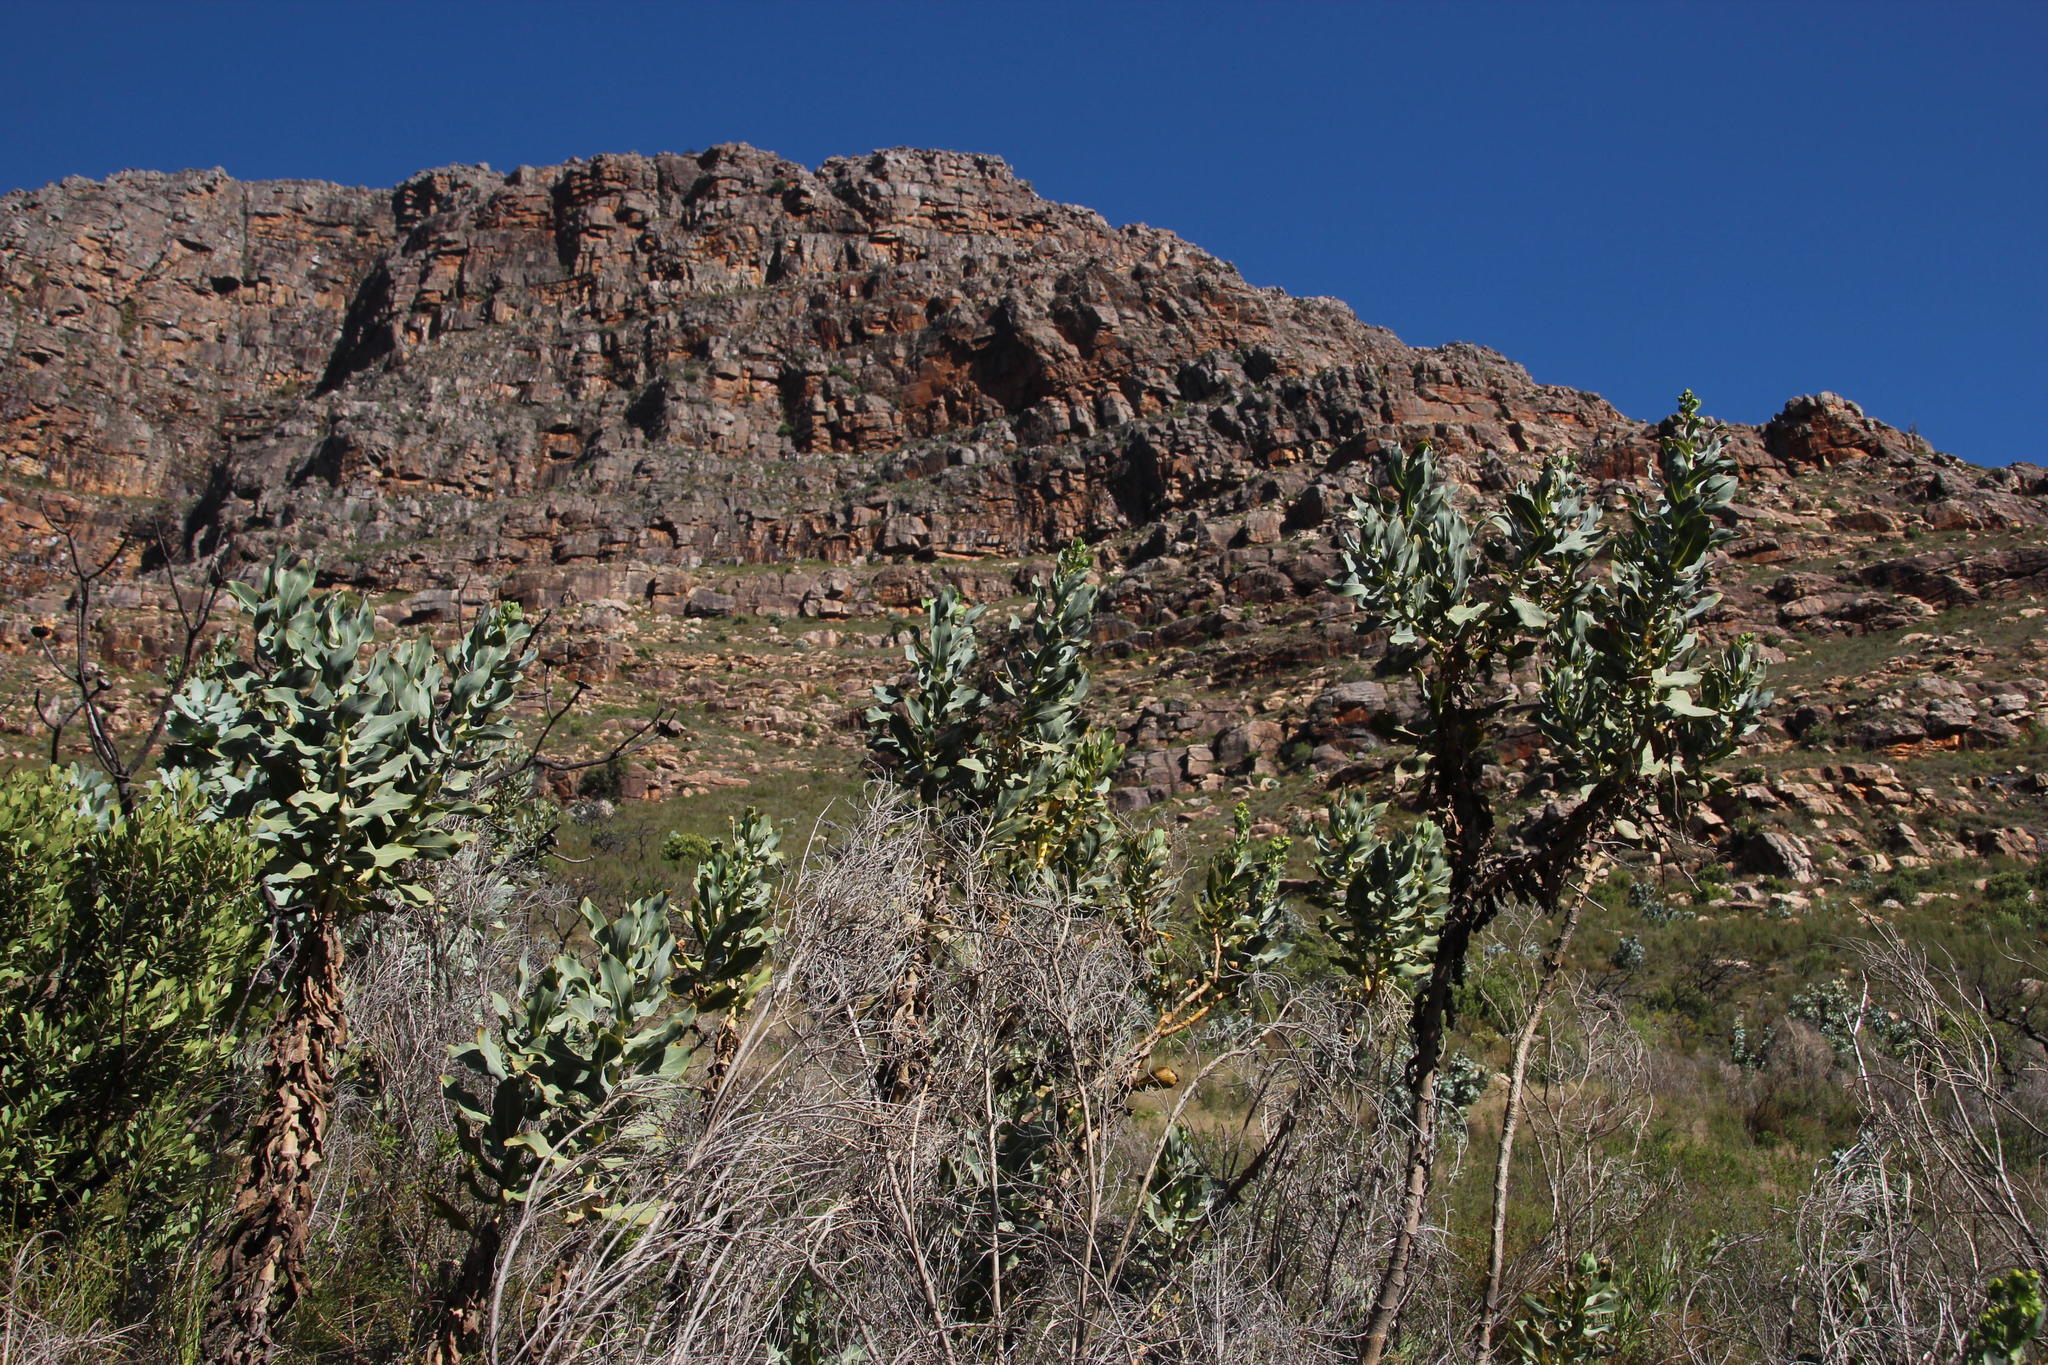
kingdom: Plantae
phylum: Tracheophyta
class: Magnoliopsida
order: Asterales
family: Asteraceae
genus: Othonna
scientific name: Othonna parviflora
